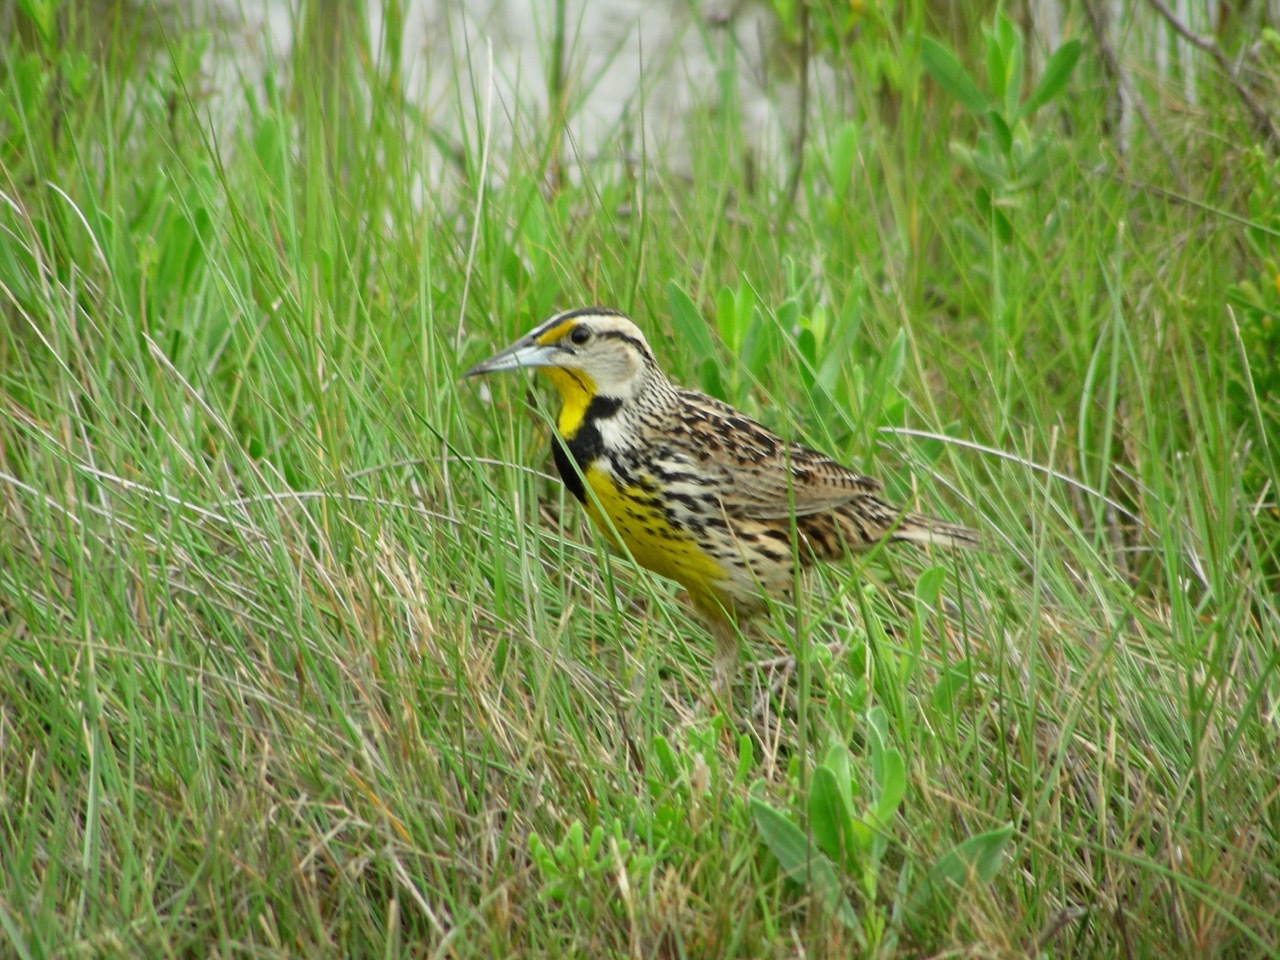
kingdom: Animalia
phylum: Chordata
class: Aves
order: Passeriformes
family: Icteridae
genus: Sturnella
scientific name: Sturnella magna
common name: Eastern meadowlark
